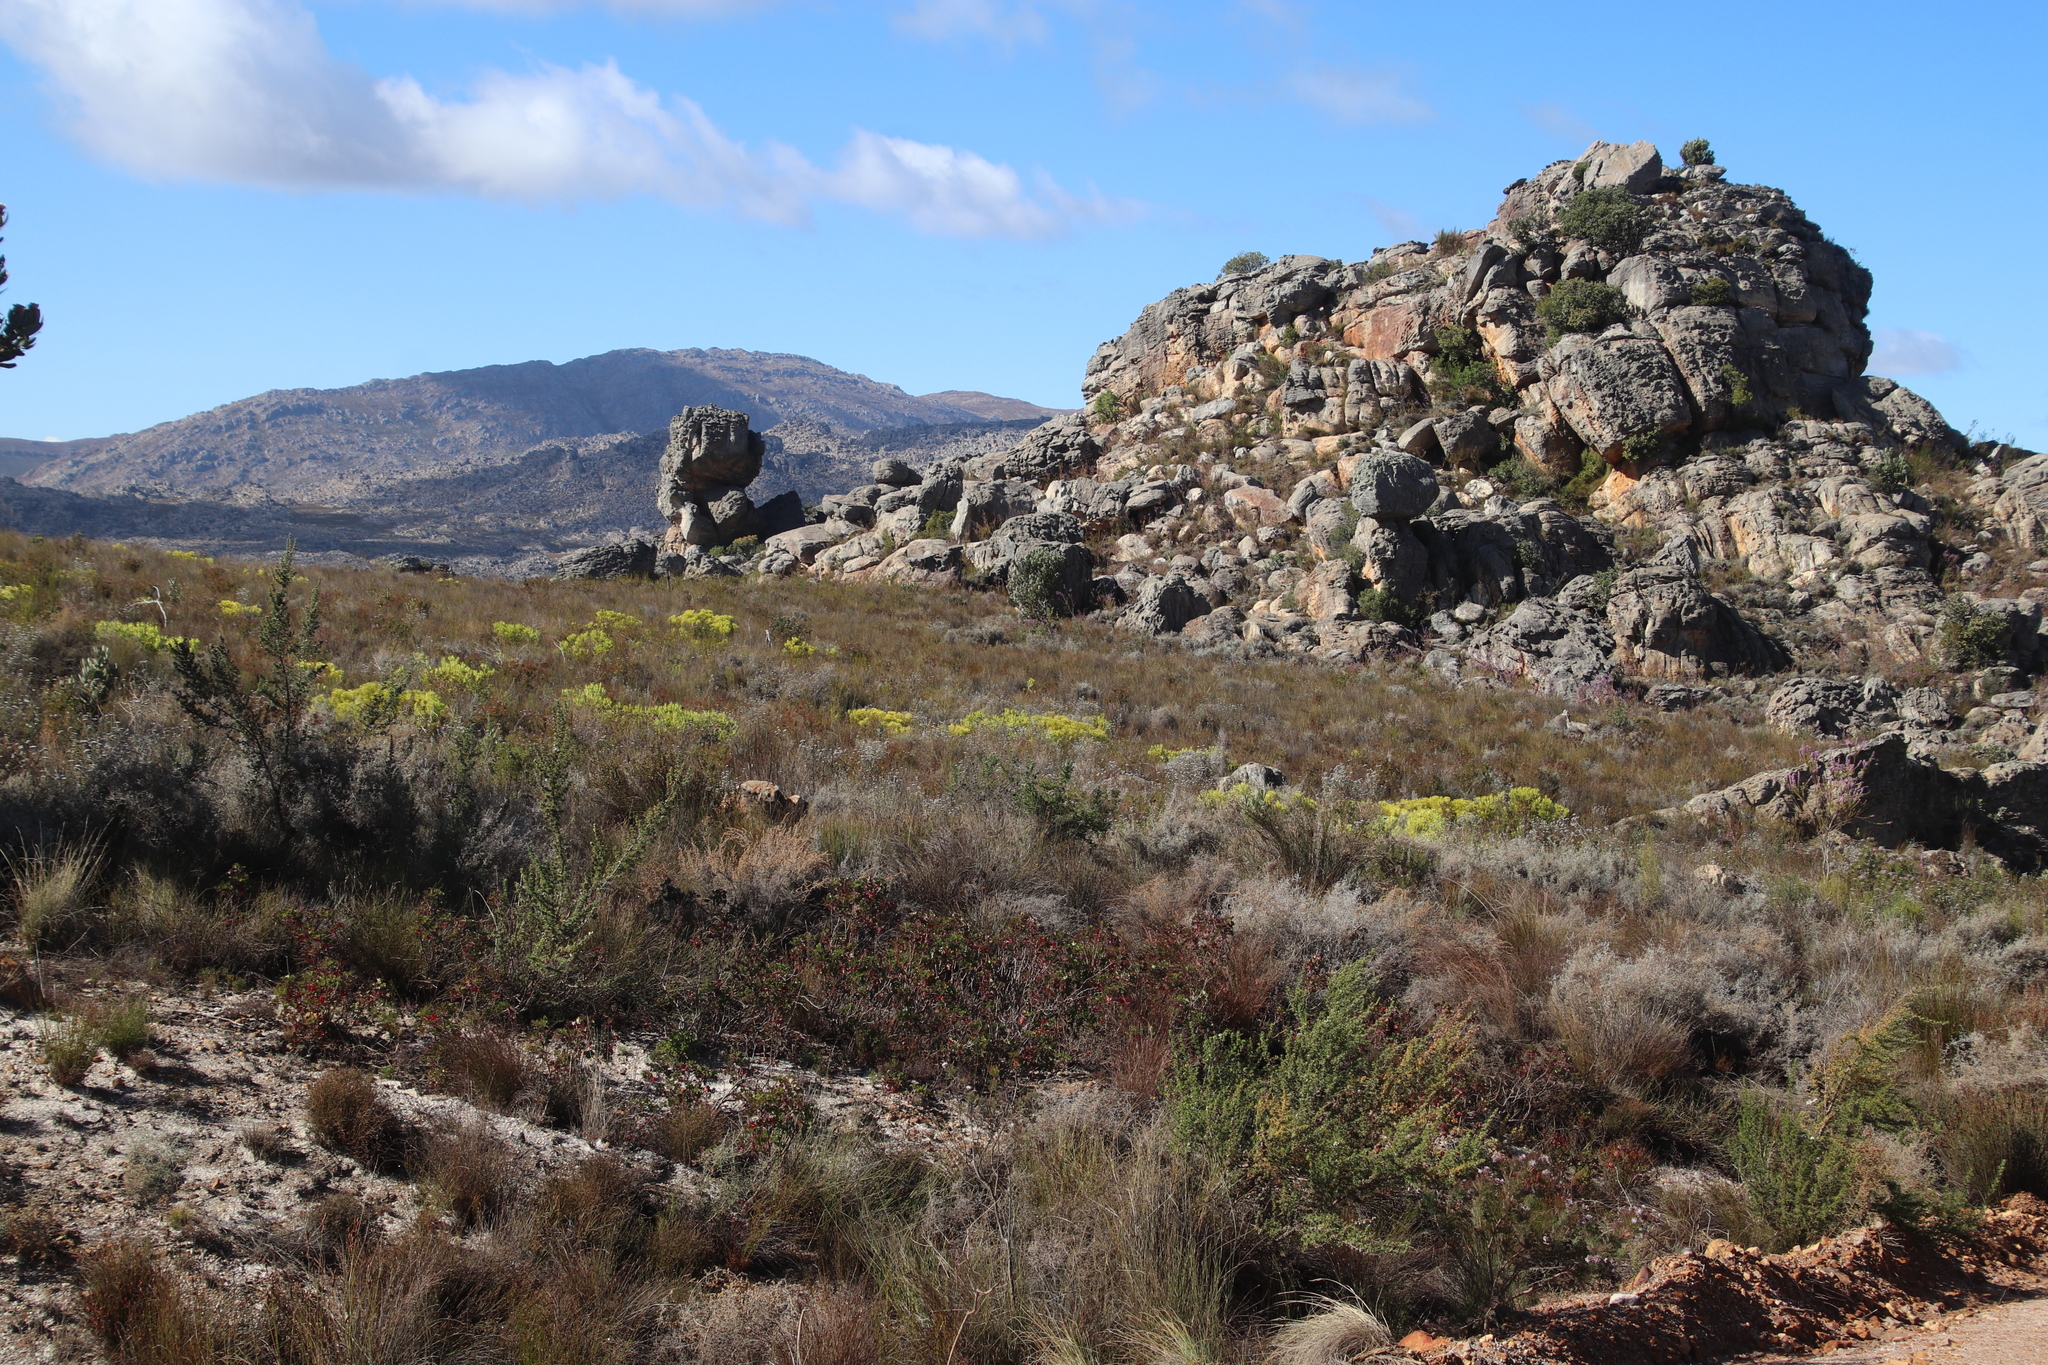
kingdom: Plantae
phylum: Tracheophyta
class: Magnoliopsida
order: Proteales
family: Proteaceae
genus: Leucadendron
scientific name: Leucadendron salignum
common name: Common sunshine conebush
